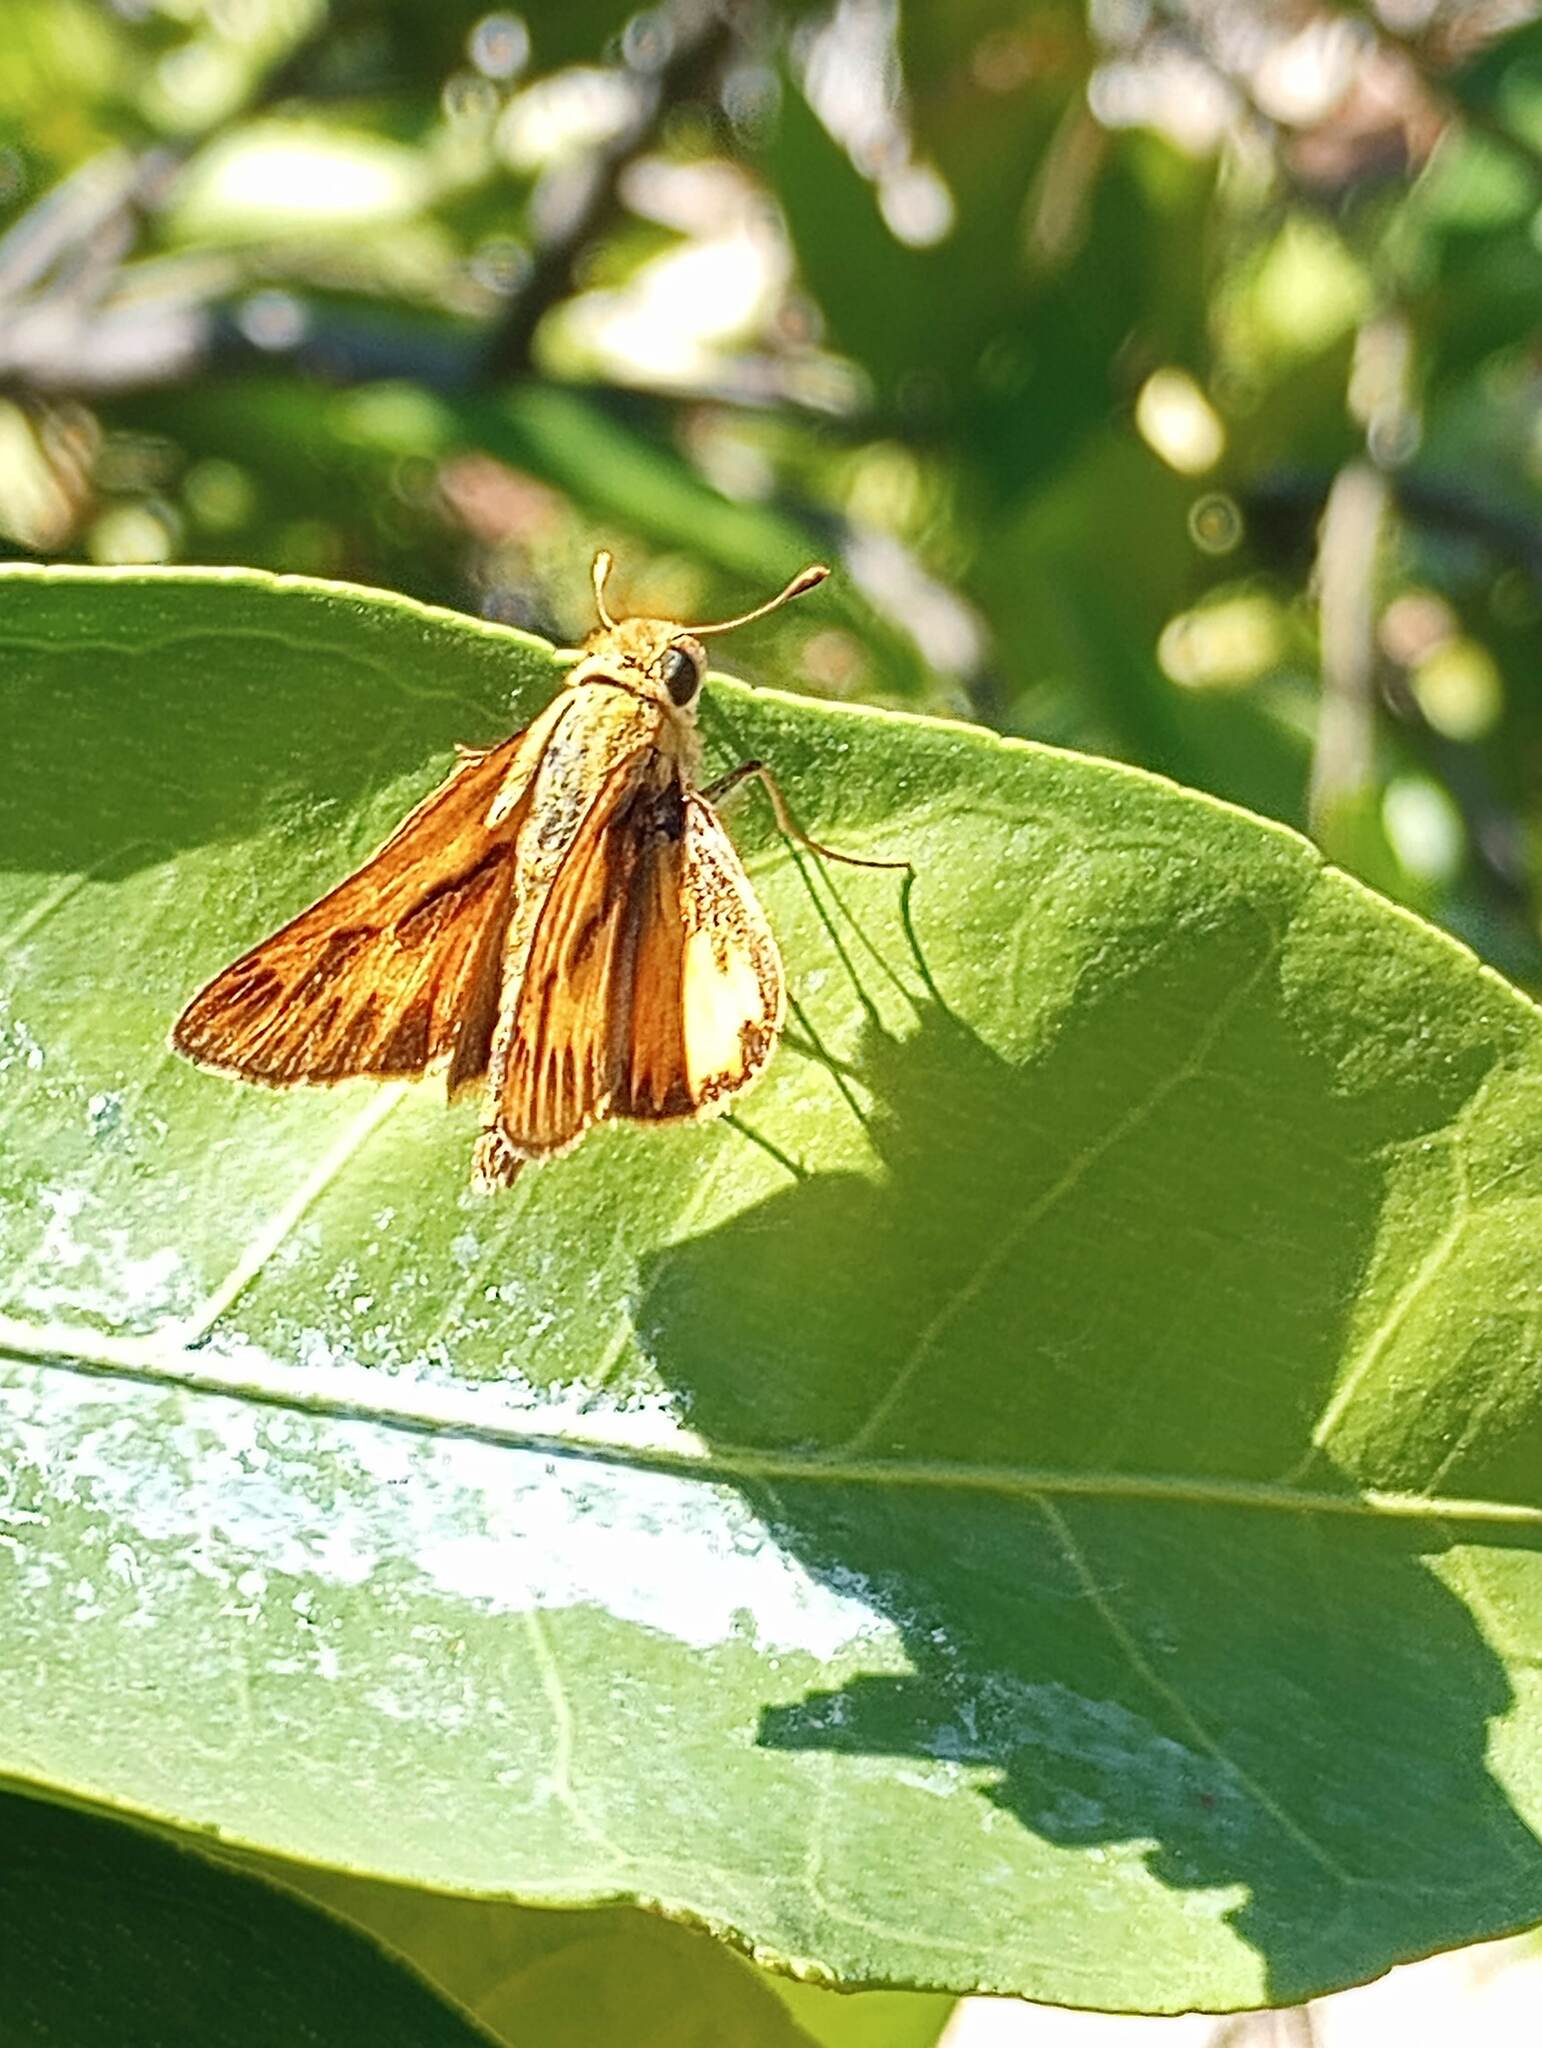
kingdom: Animalia
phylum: Arthropoda
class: Insecta
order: Lepidoptera
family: Hesperiidae
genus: Hylephila
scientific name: Hylephila phyleus
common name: Fiery skipper
